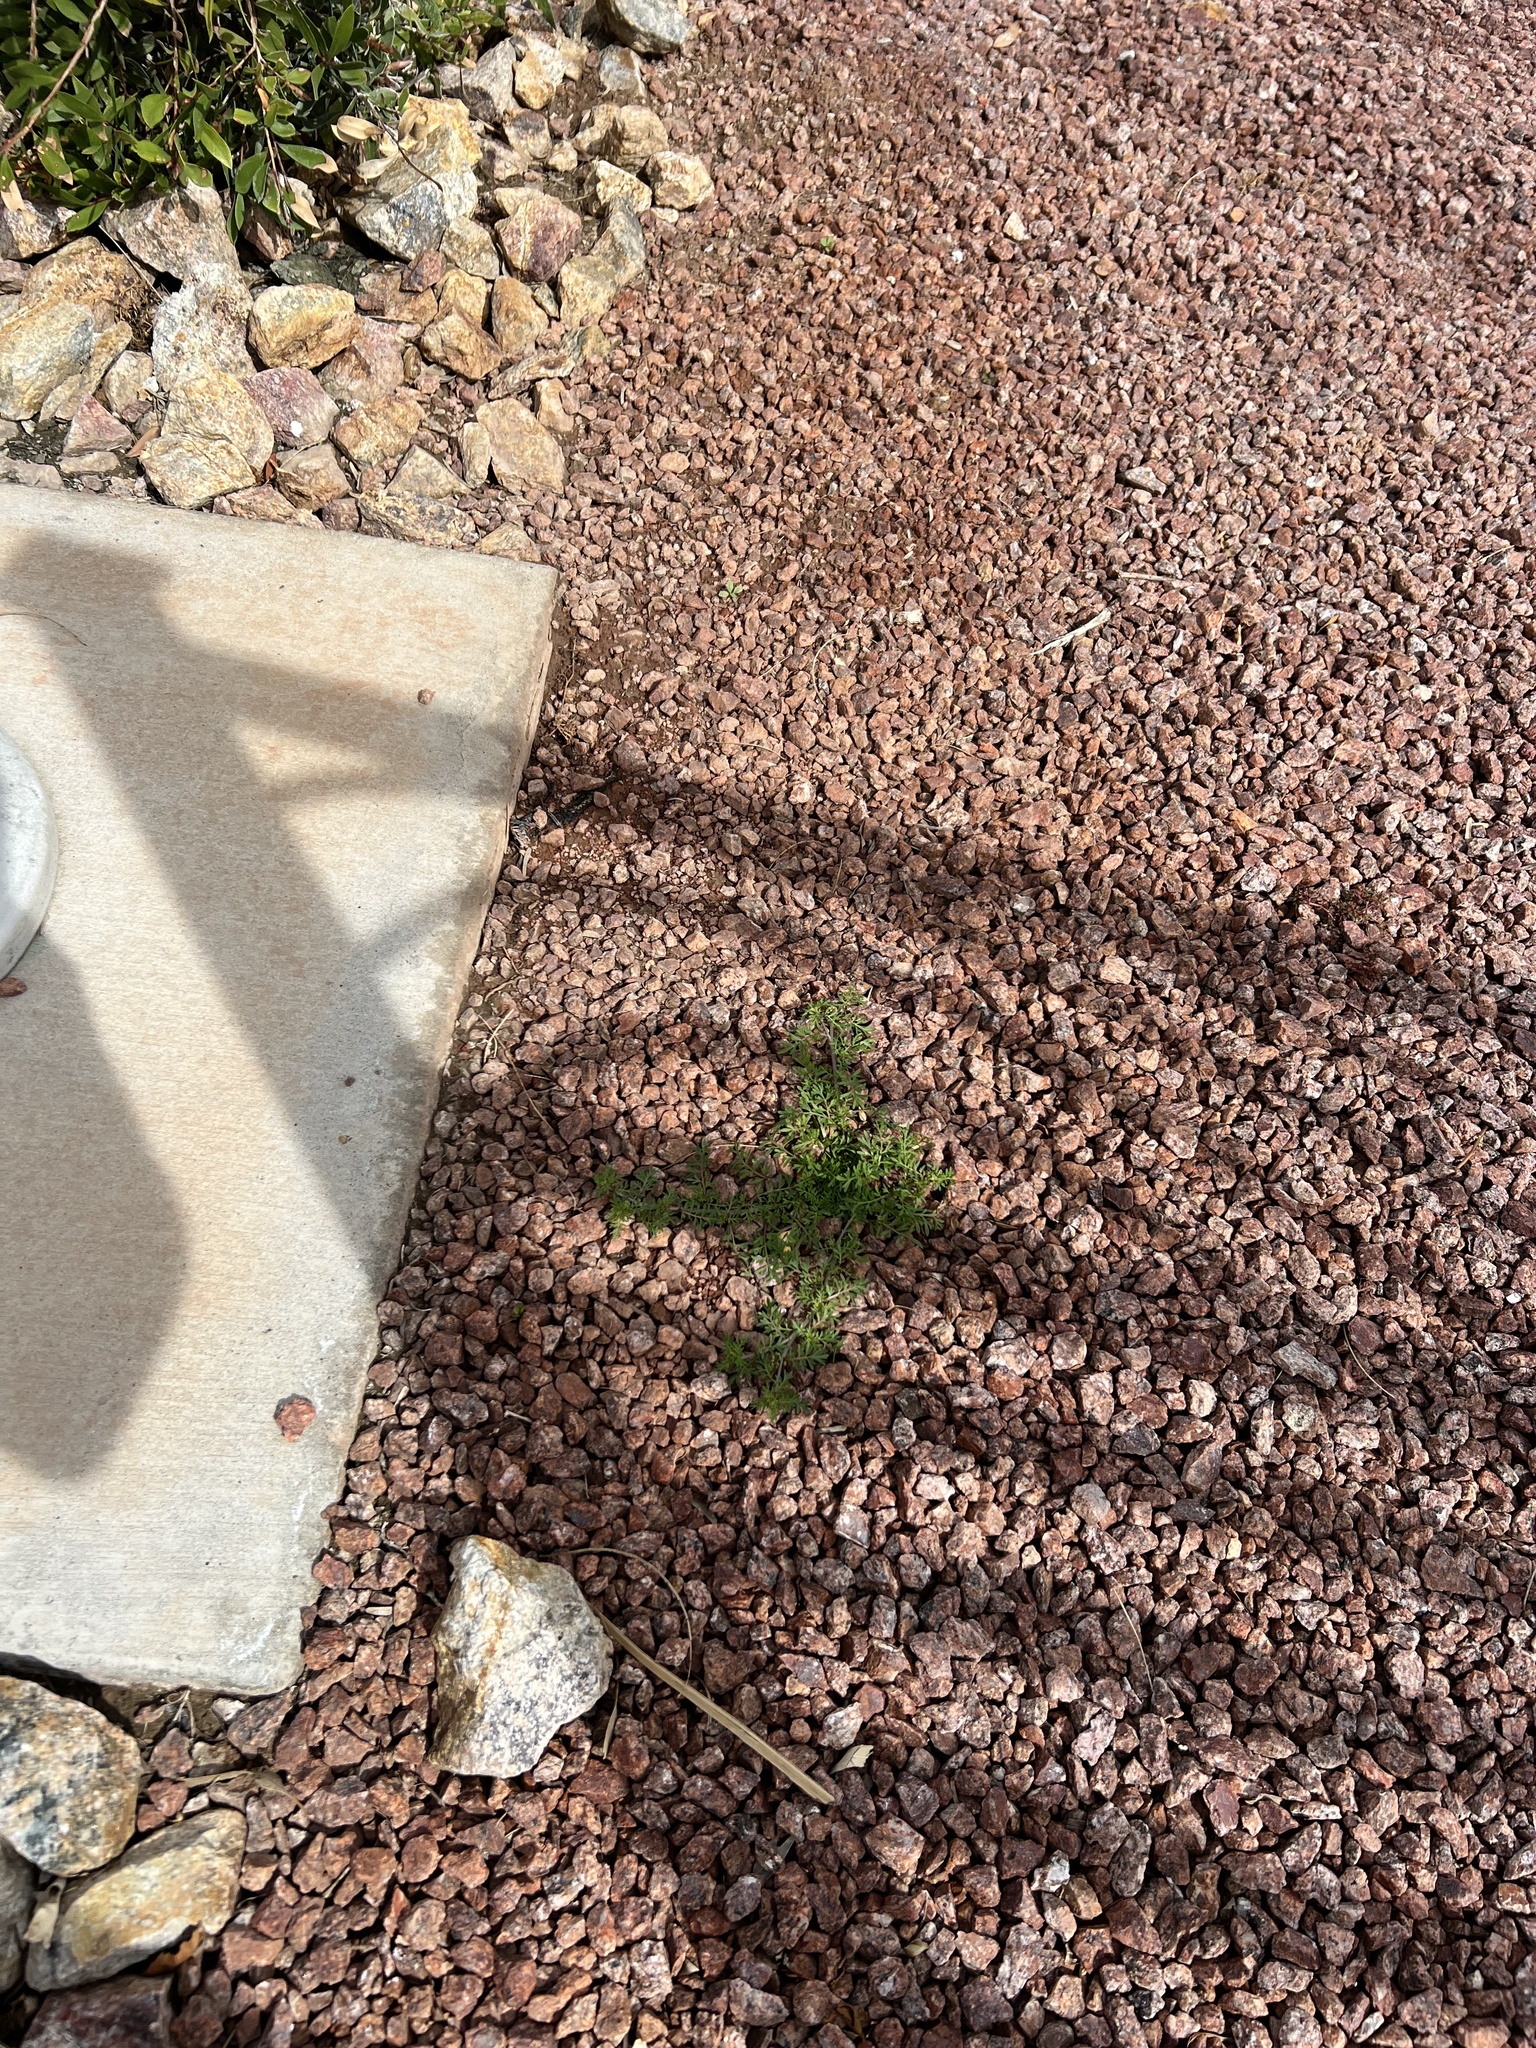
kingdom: Plantae
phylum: Tracheophyta
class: Magnoliopsida
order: Brassicales
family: Brassicaceae
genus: Lepidium
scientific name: Lepidium didymum
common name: Lesser swinecress
